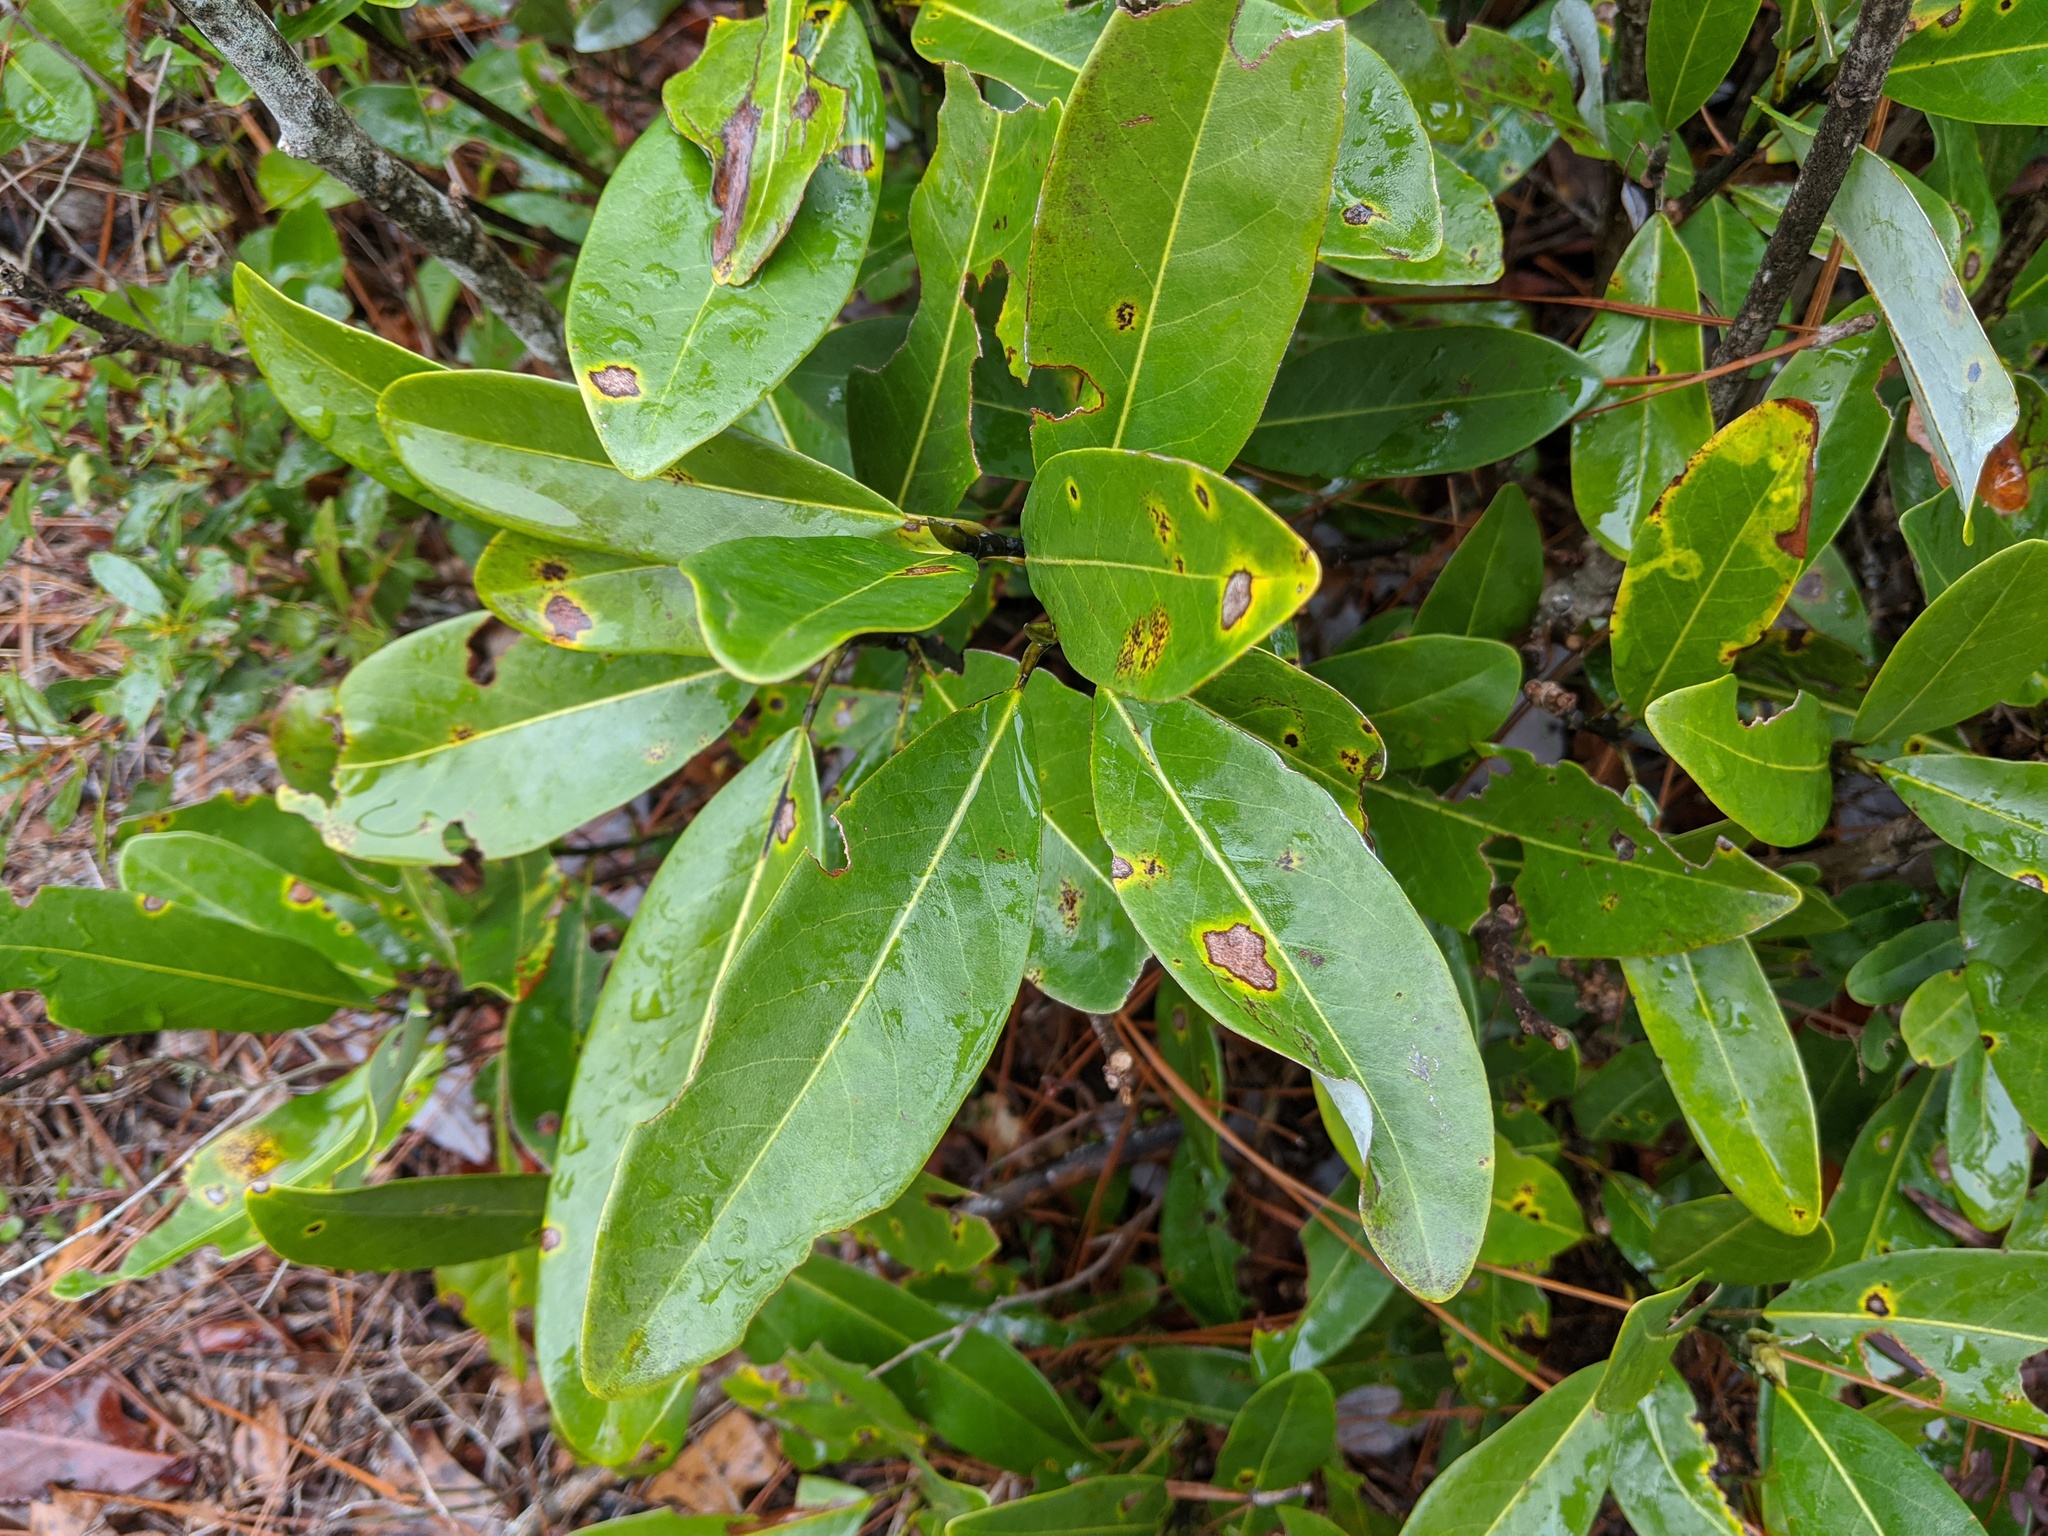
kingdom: Plantae
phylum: Tracheophyta
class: Magnoliopsida
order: Magnoliales
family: Magnoliaceae
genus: Magnolia
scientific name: Magnolia virginiana
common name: Swamp bay
